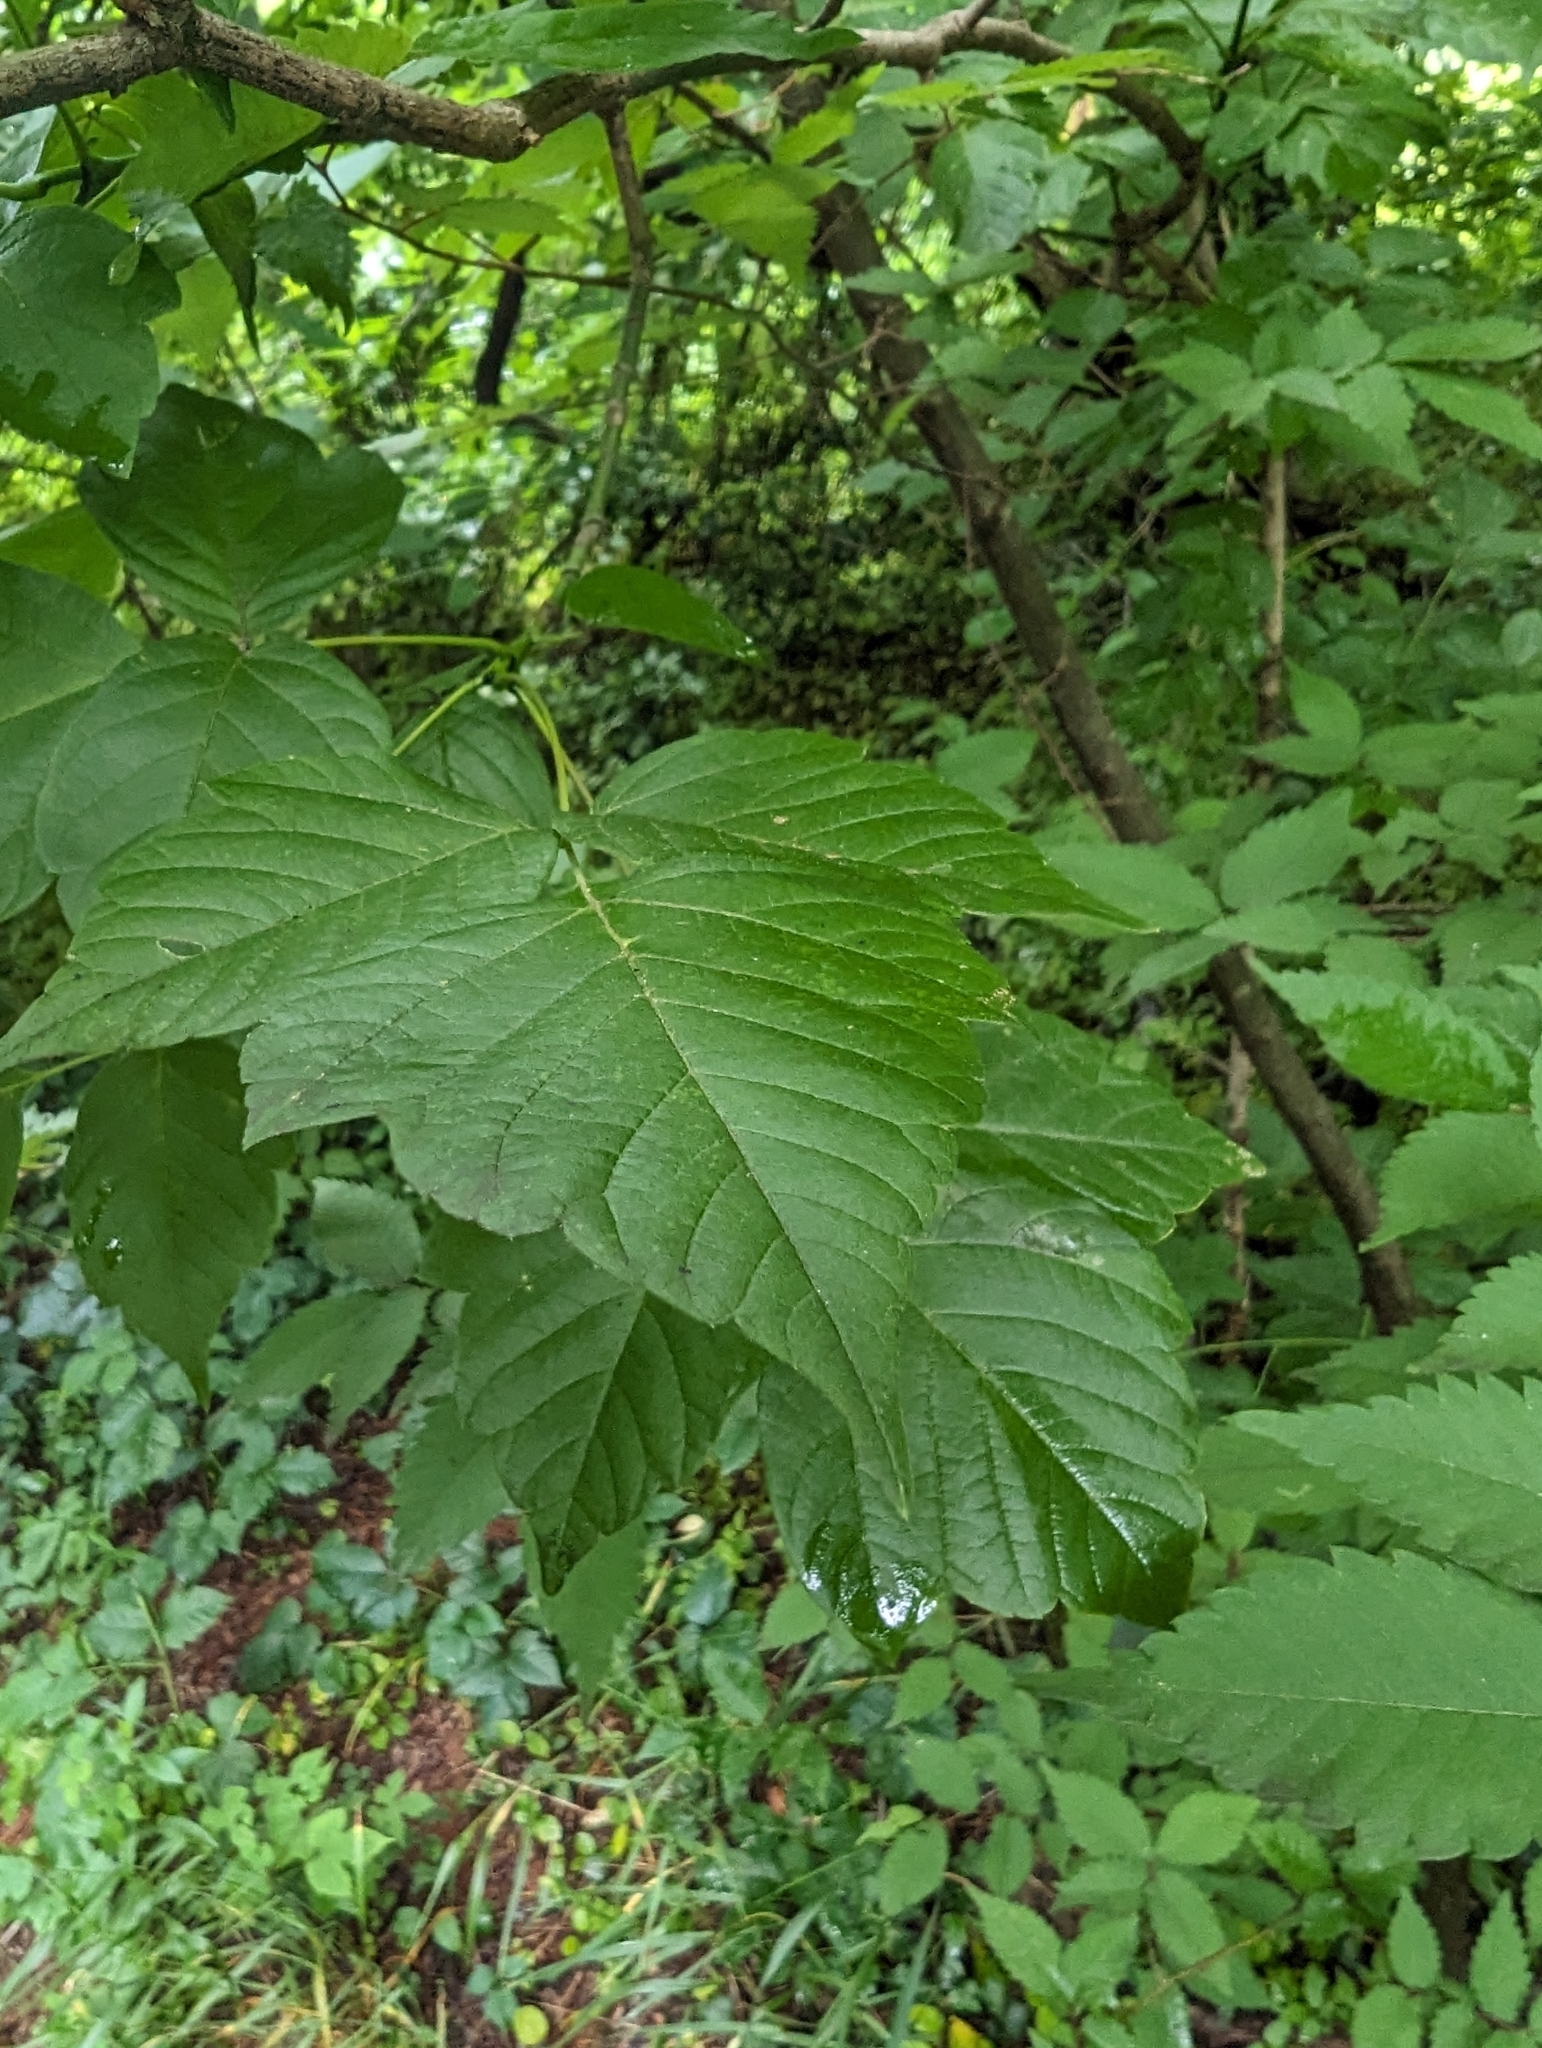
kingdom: Plantae
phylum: Tracheophyta
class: Magnoliopsida
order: Sapindales
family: Sapindaceae
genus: Acer
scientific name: Acer negundo
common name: Ashleaf maple
